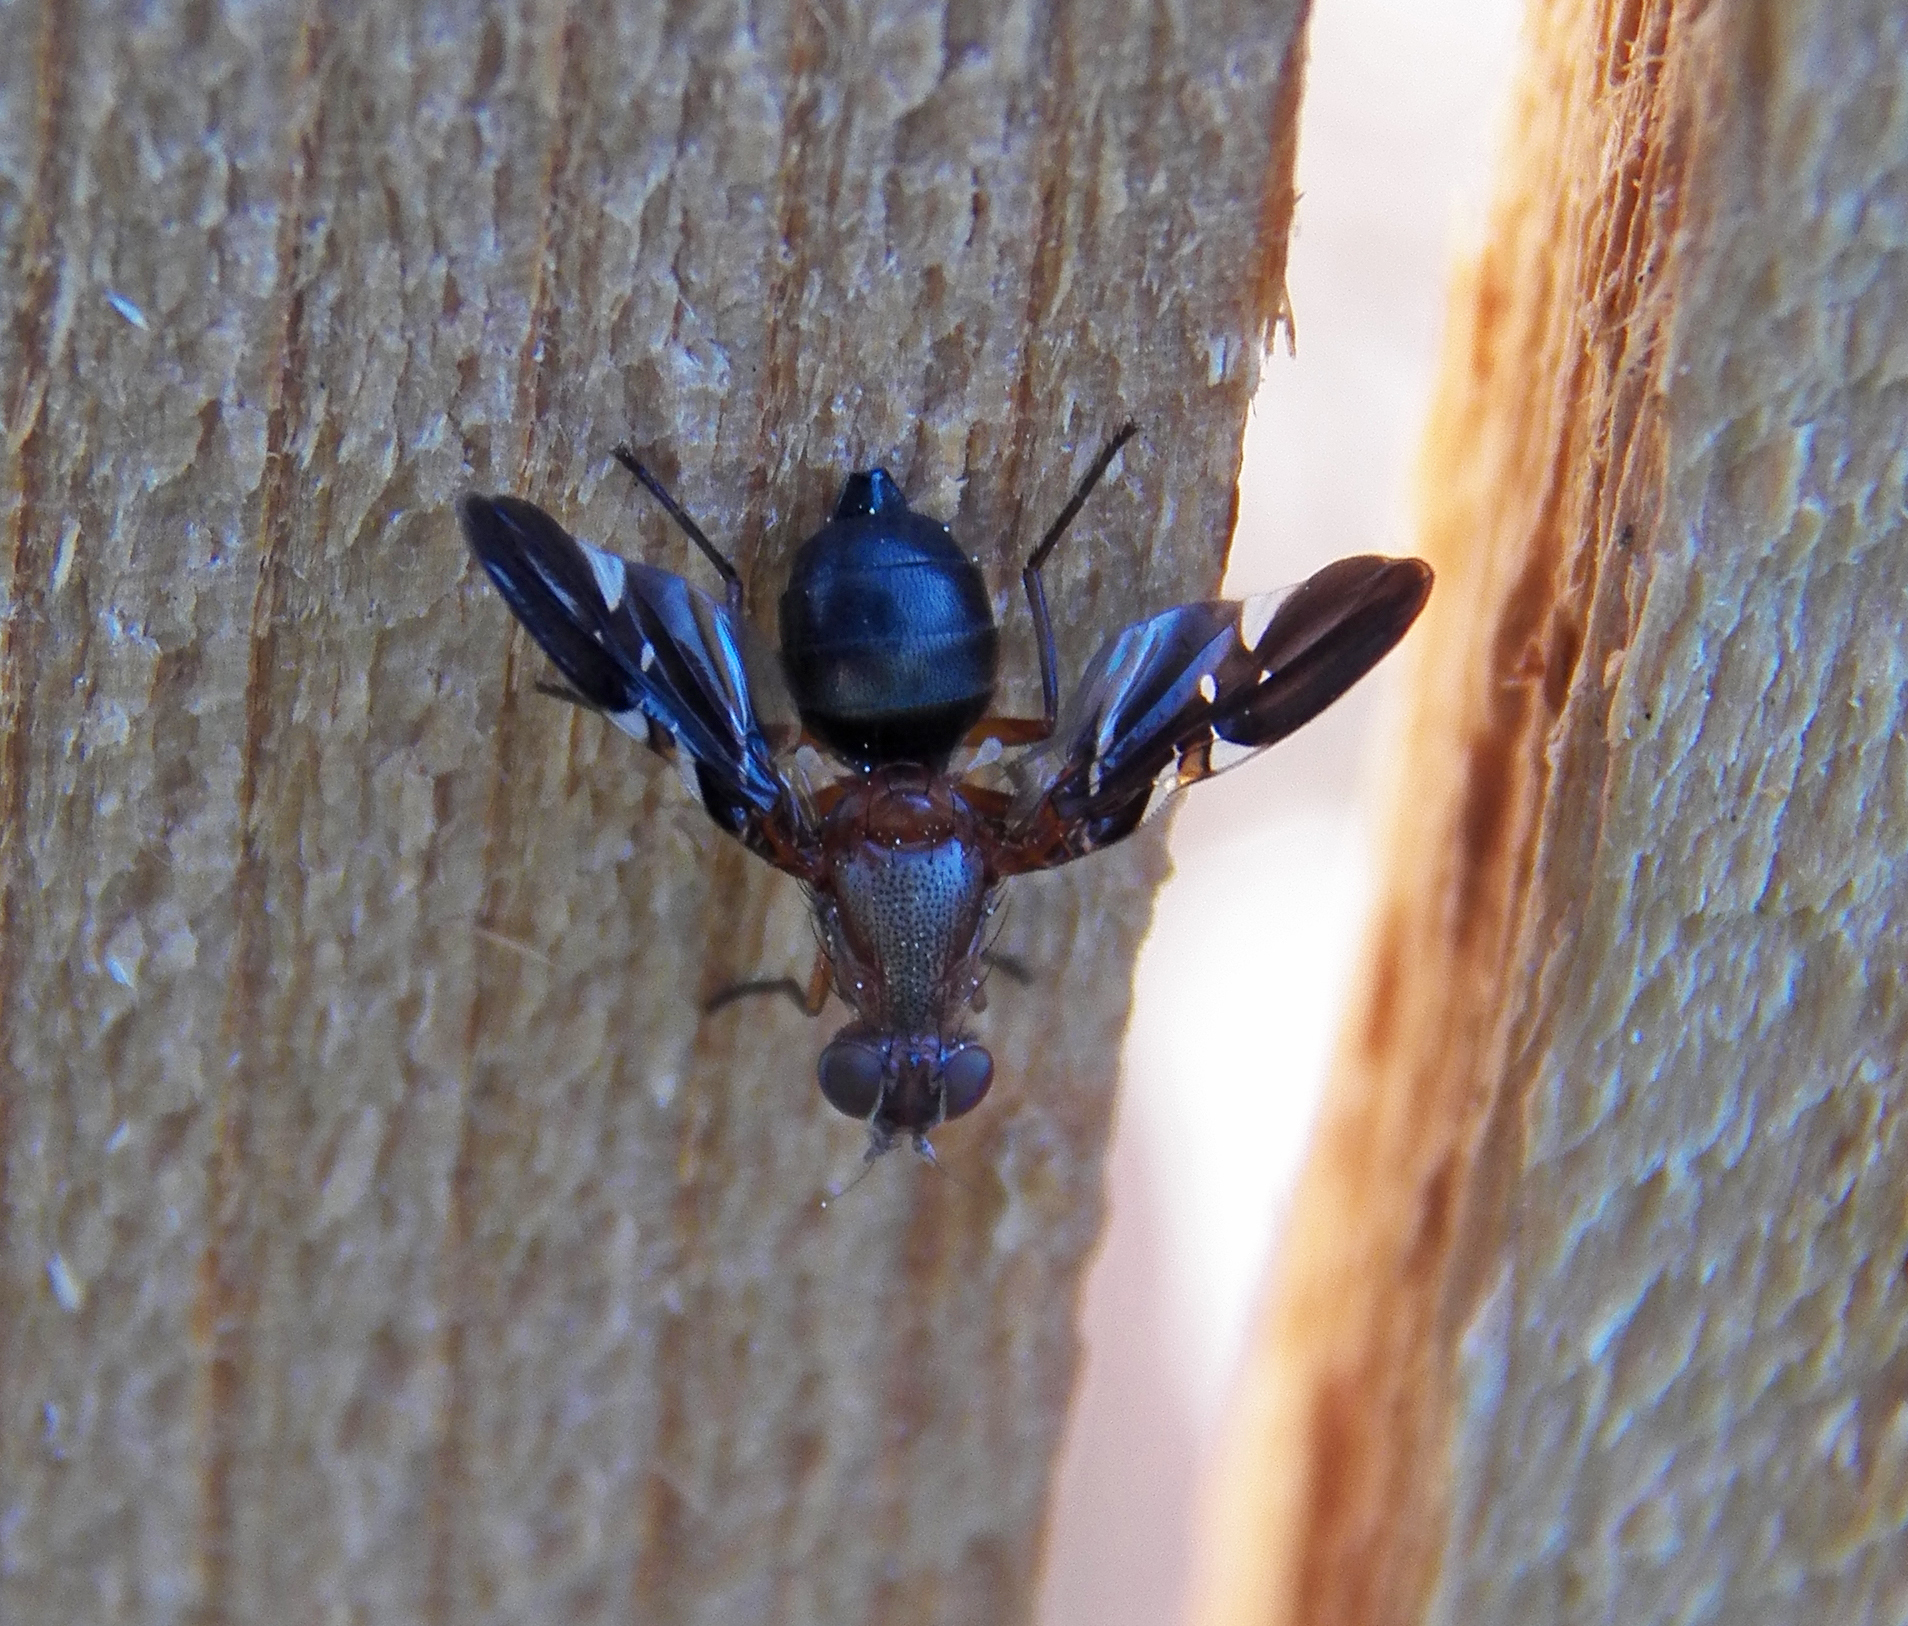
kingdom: Animalia
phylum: Arthropoda
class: Insecta
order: Diptera
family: Ulidiidae
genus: Delphinia
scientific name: Delphinia picta
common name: Common picture-winged fly
